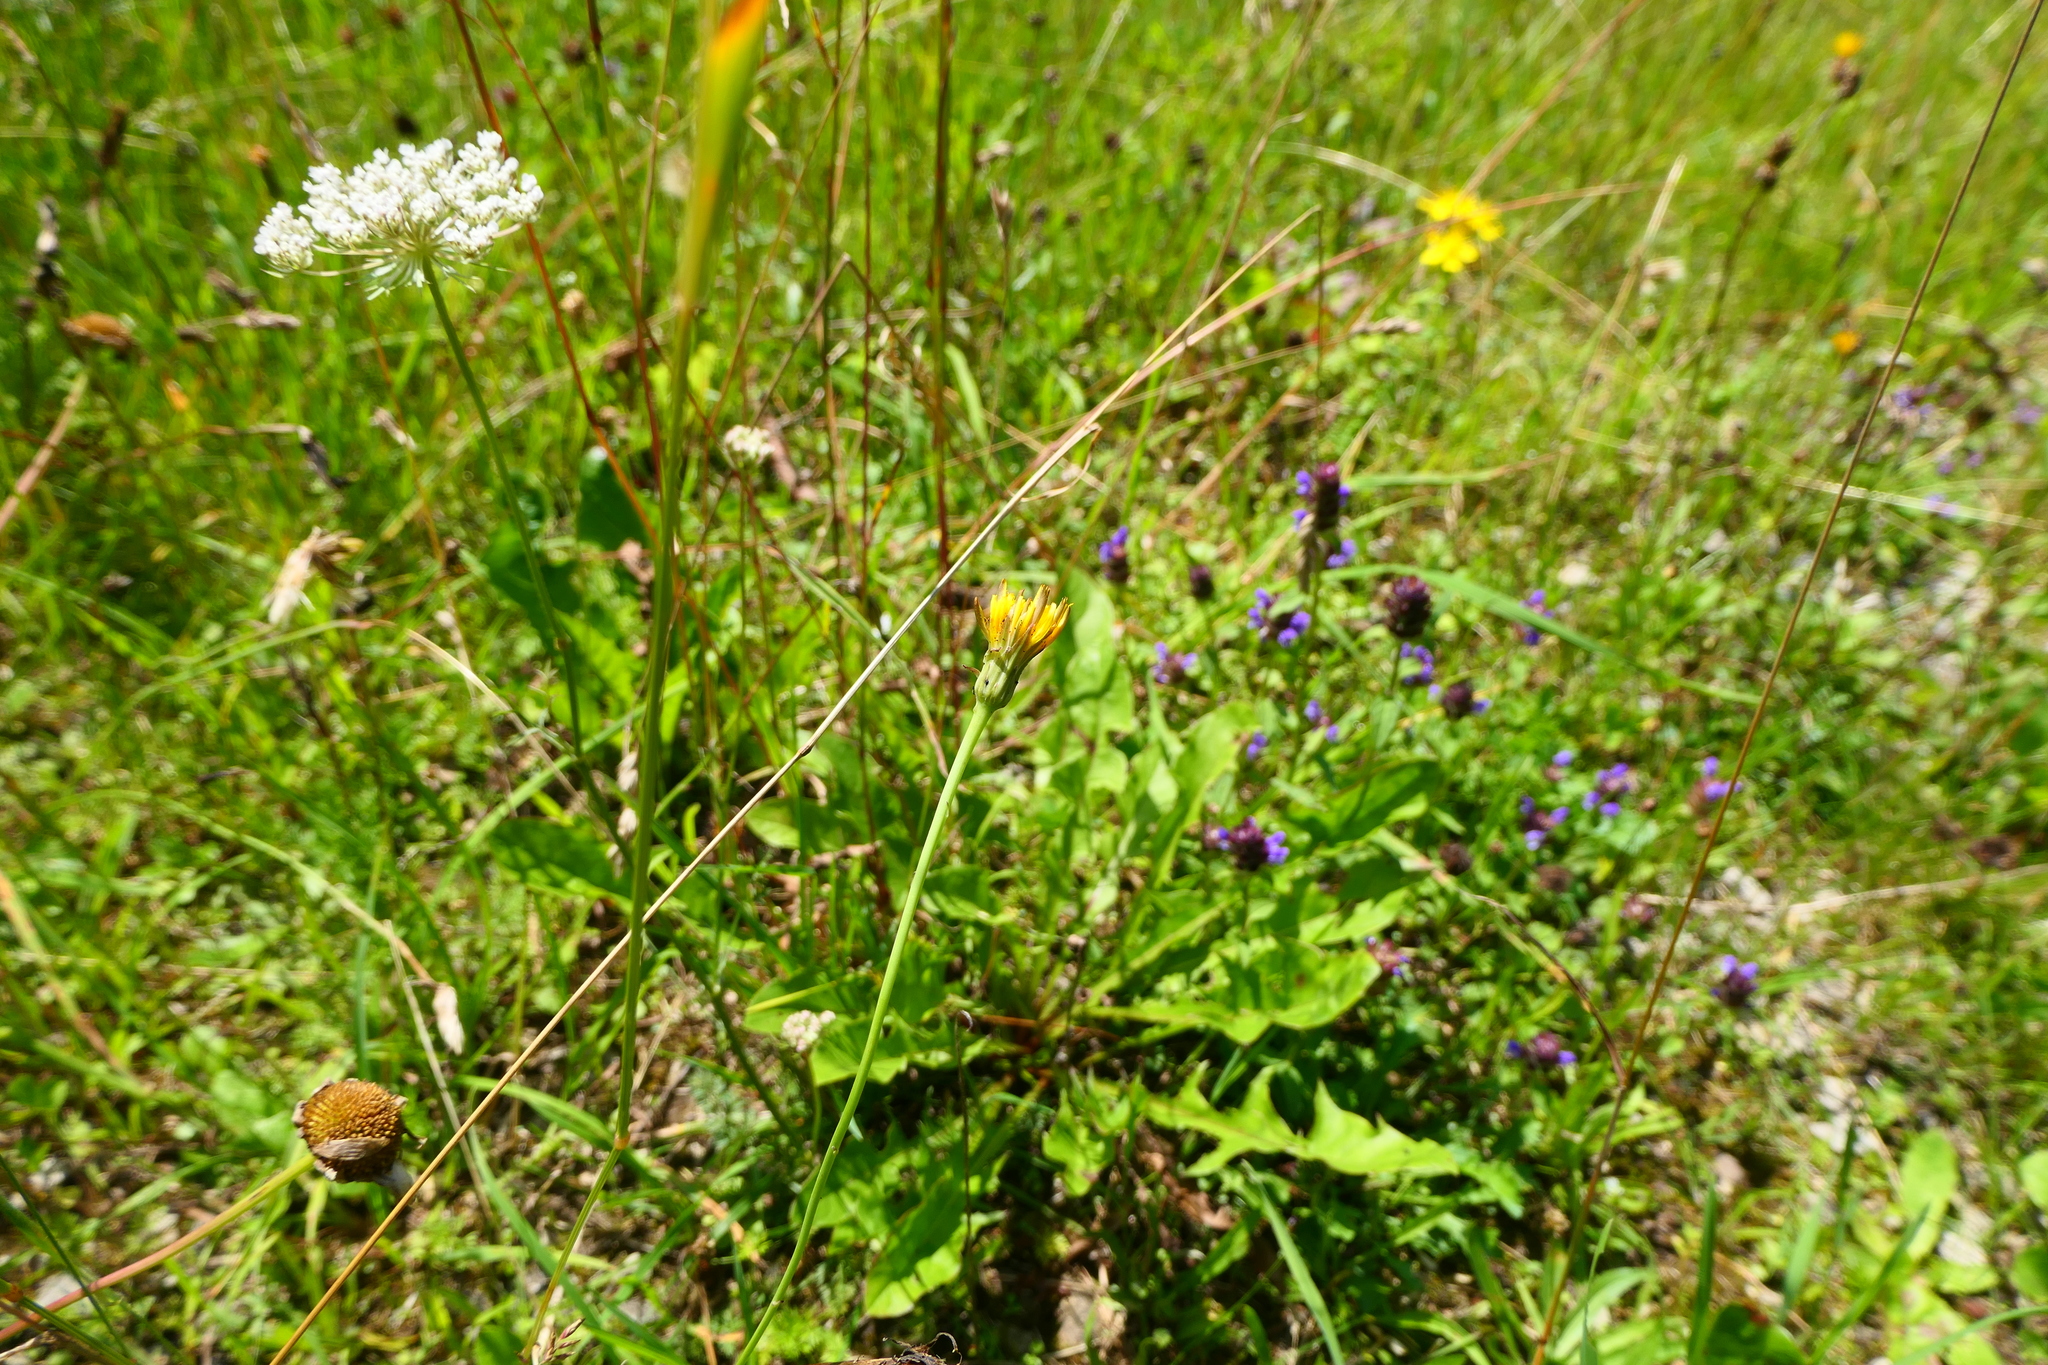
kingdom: Plantae
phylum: Tracheophyta
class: Magnoliopsida
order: Asterales
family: Asteraceae
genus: Hypochaeris
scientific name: Hypochaeris radicata
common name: Flatweed
